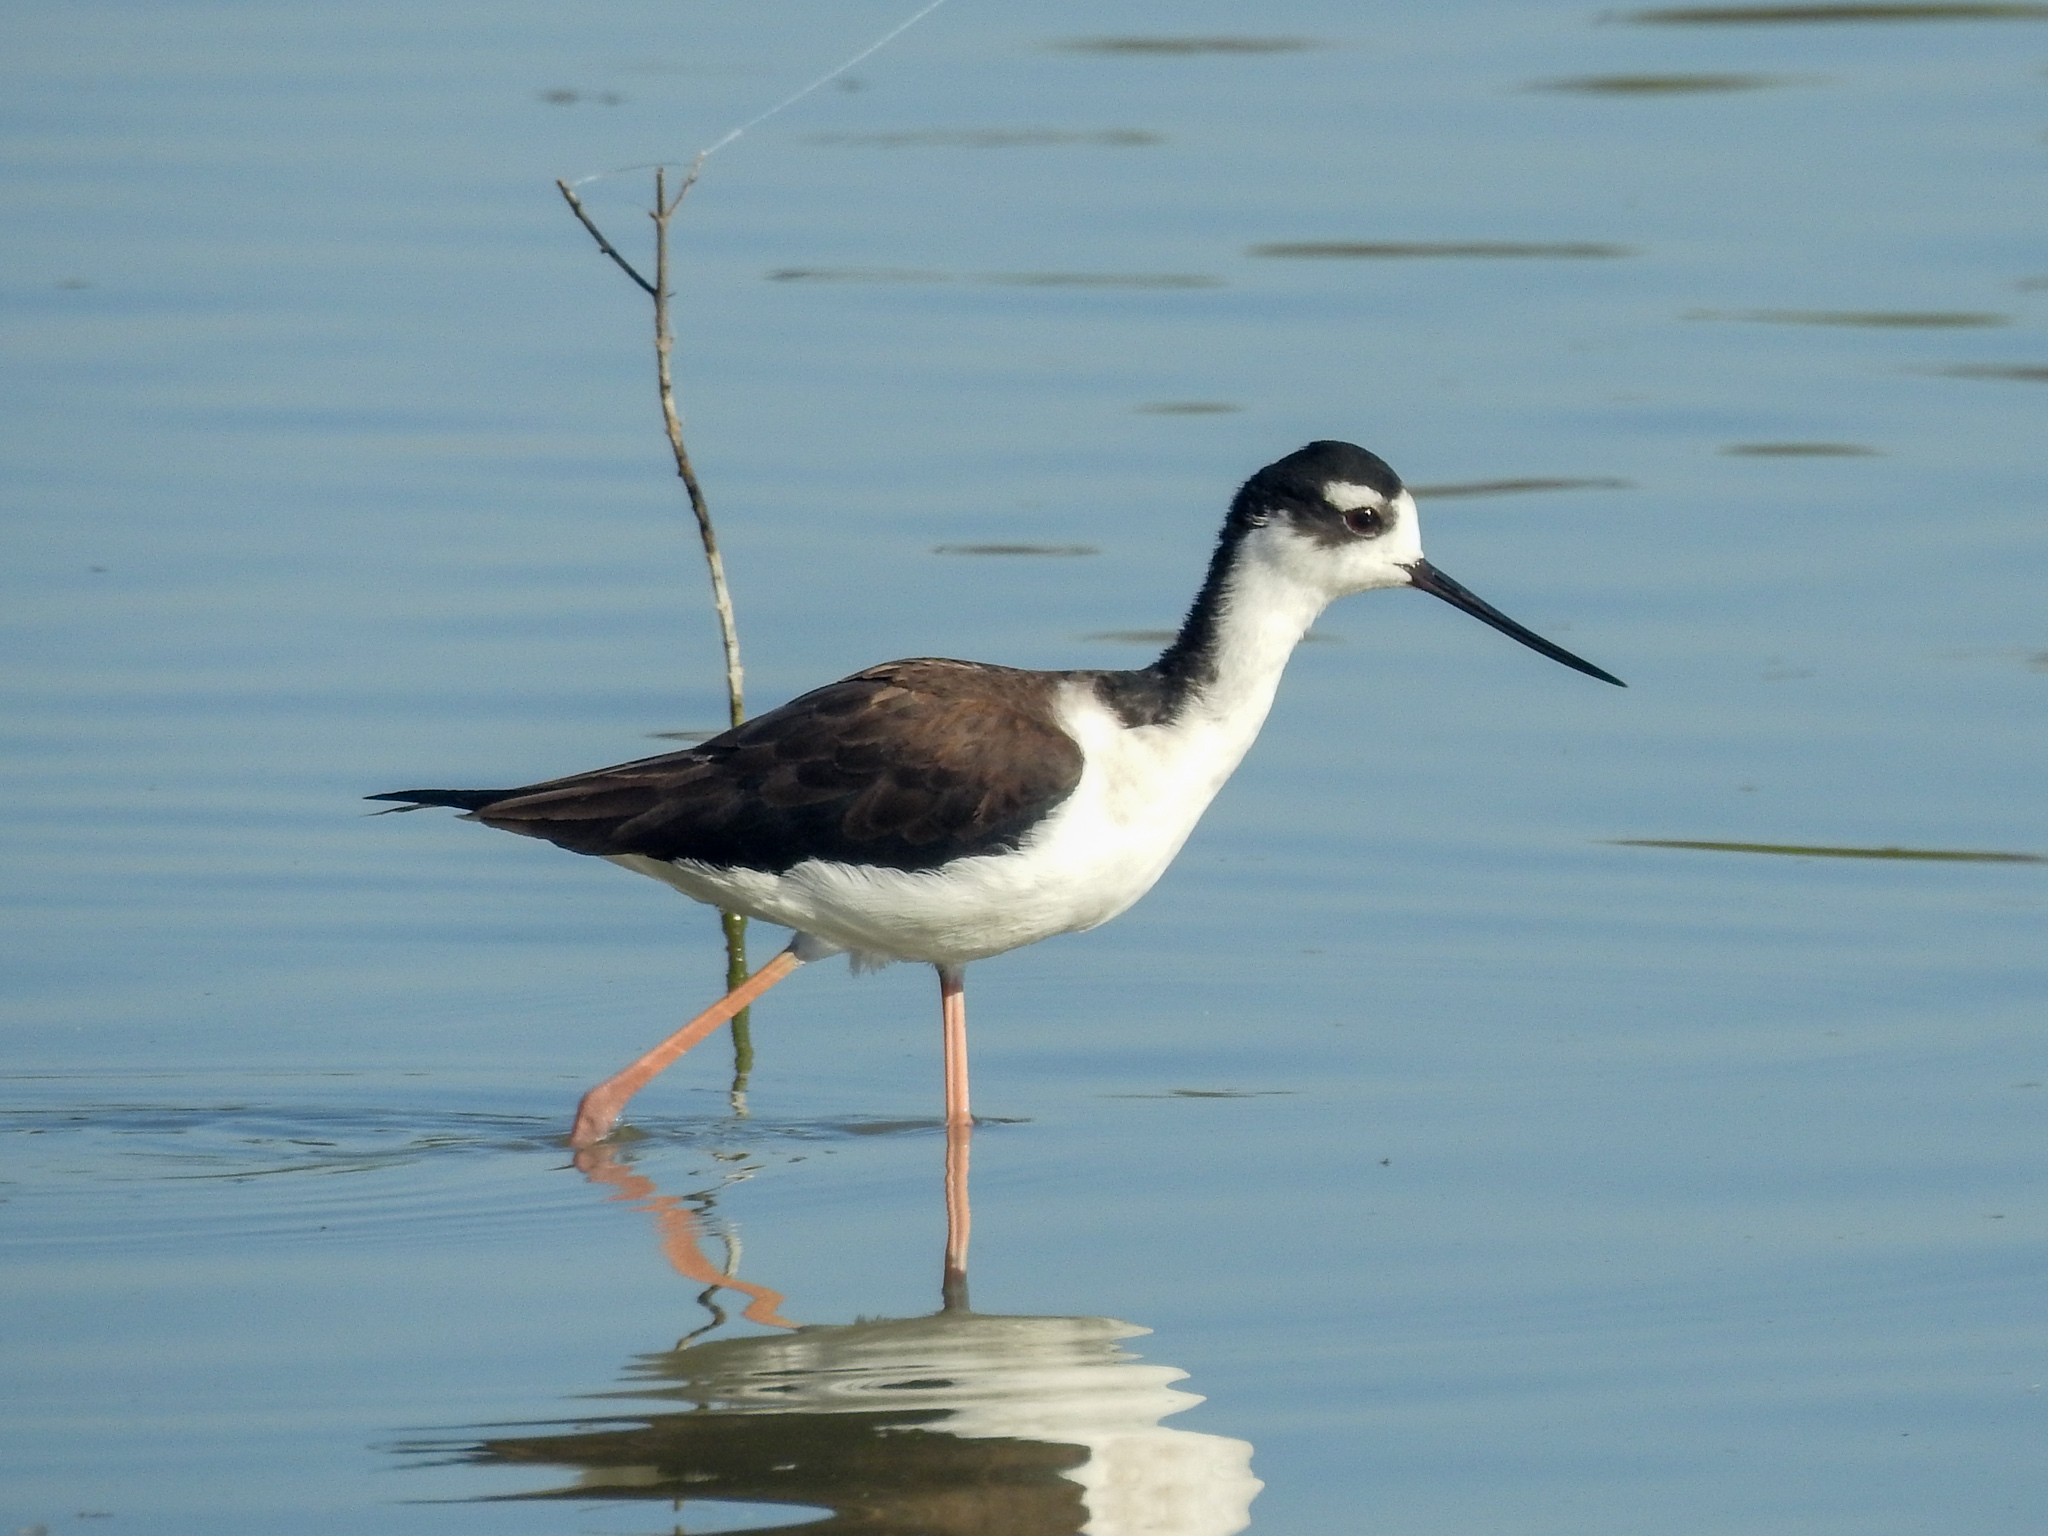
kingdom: Animalia
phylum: Chordata
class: Aves
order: Charadriiformes
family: Recurvirostridae
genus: Himantopus
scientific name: Himantopus mexicanus
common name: Black-necked stilt
